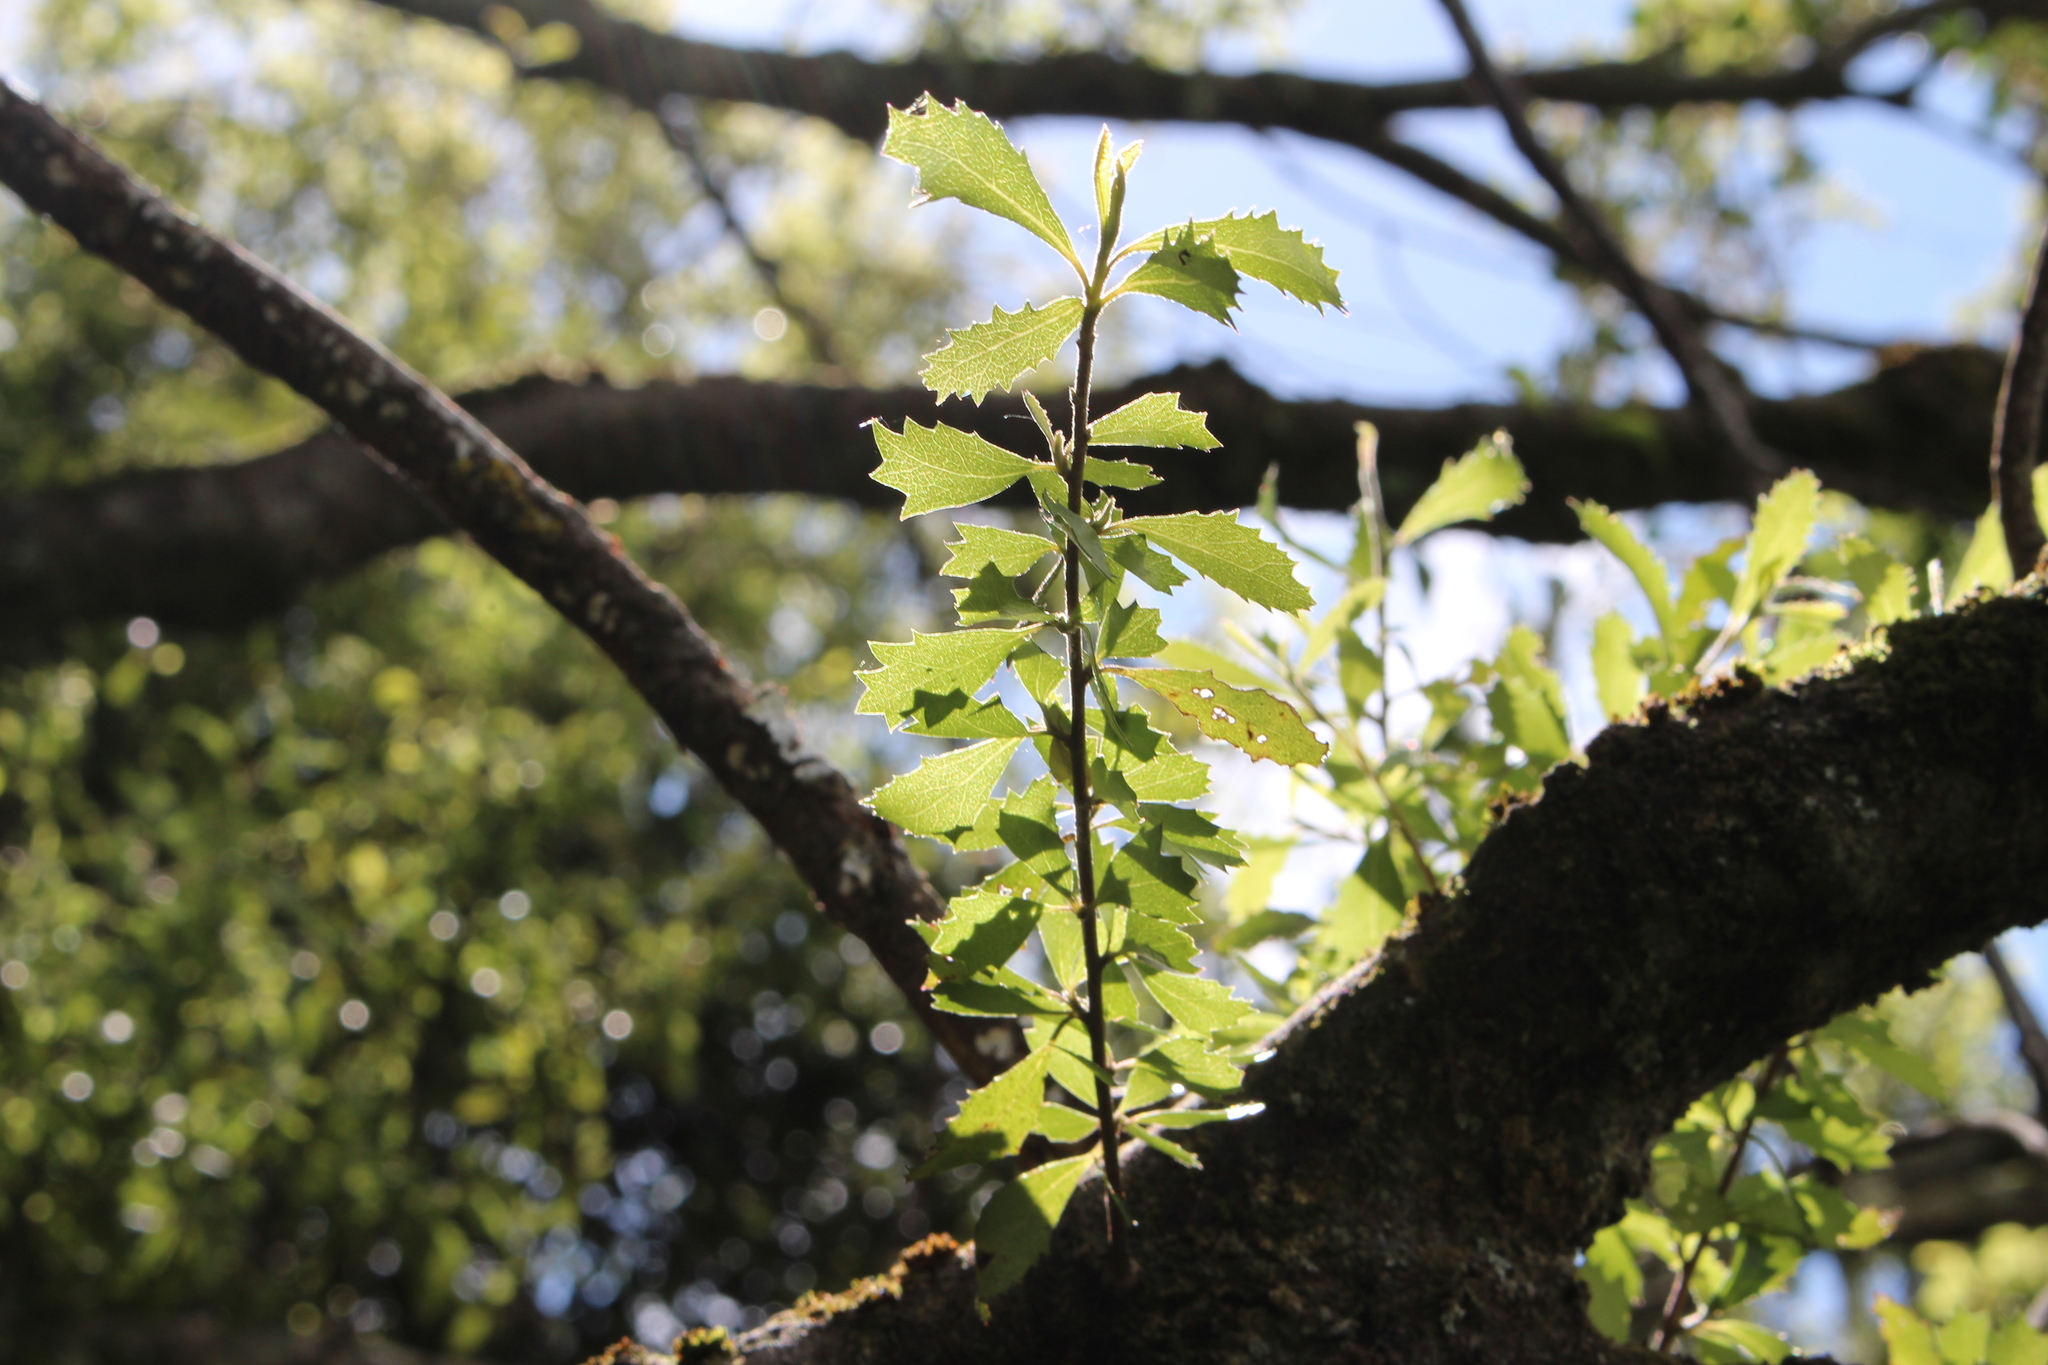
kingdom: Plantae
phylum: Tracheophyta
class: Magnoliopsida
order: Malvales
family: Malvaceae
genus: Hoheria
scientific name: Hoheria angustifolia
